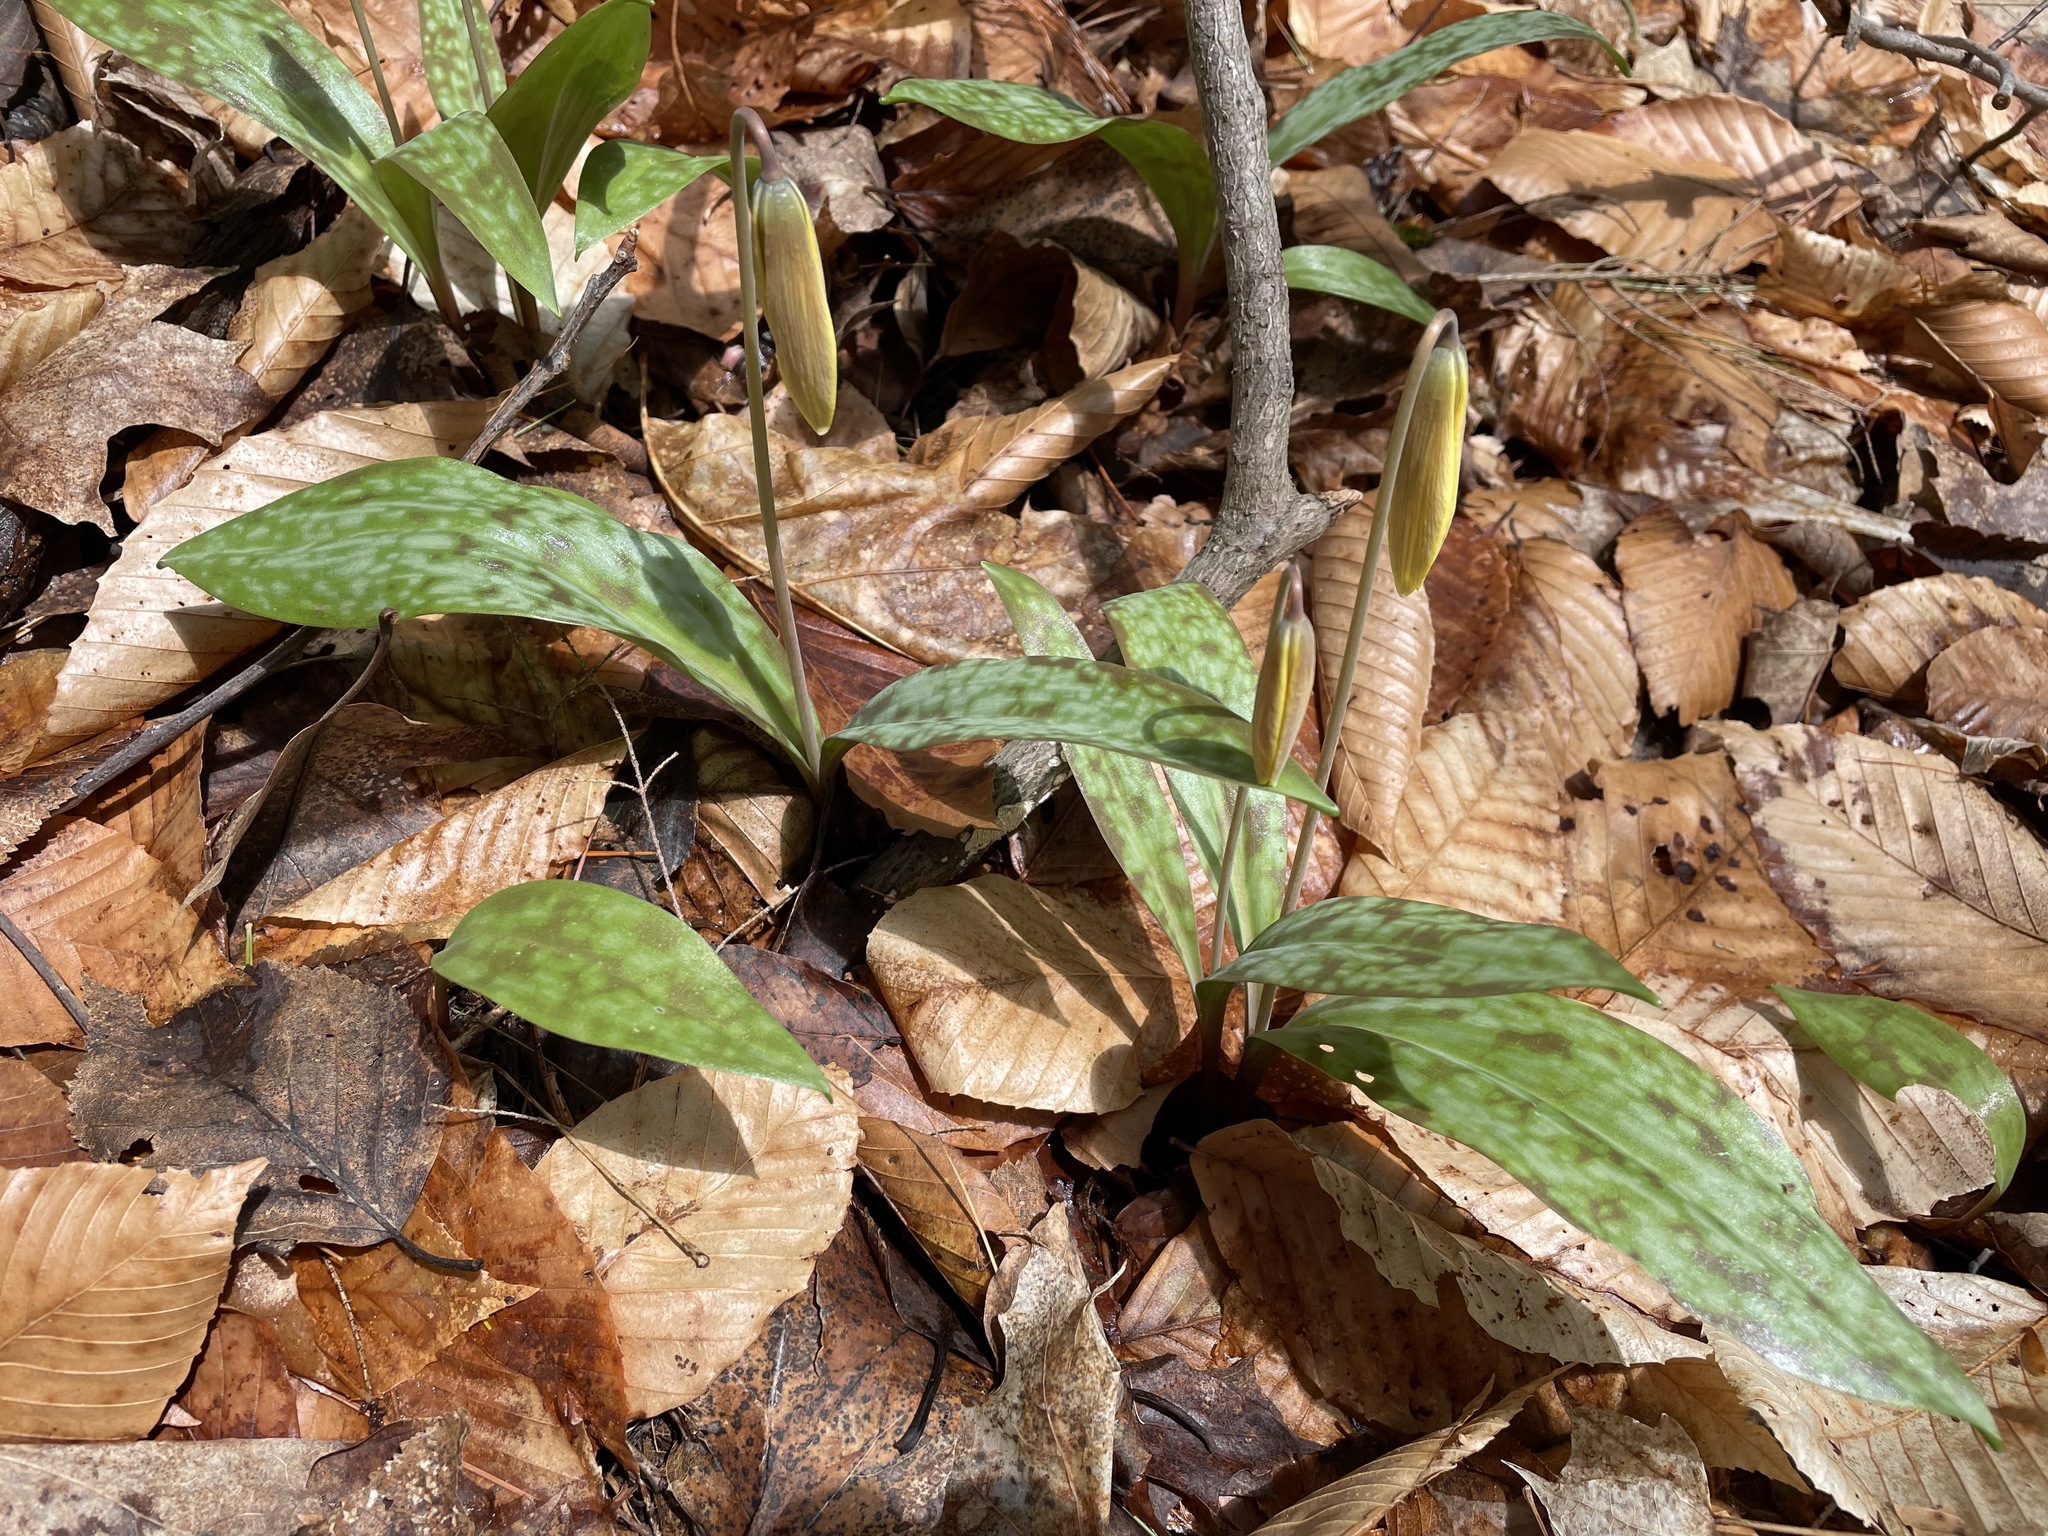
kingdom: Plantae
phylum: Tracheophyta
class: Liliopsida
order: Liliales
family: Liliaceae
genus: Erythronium
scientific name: Erythronium americanum
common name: Yellow adder's-tongue
